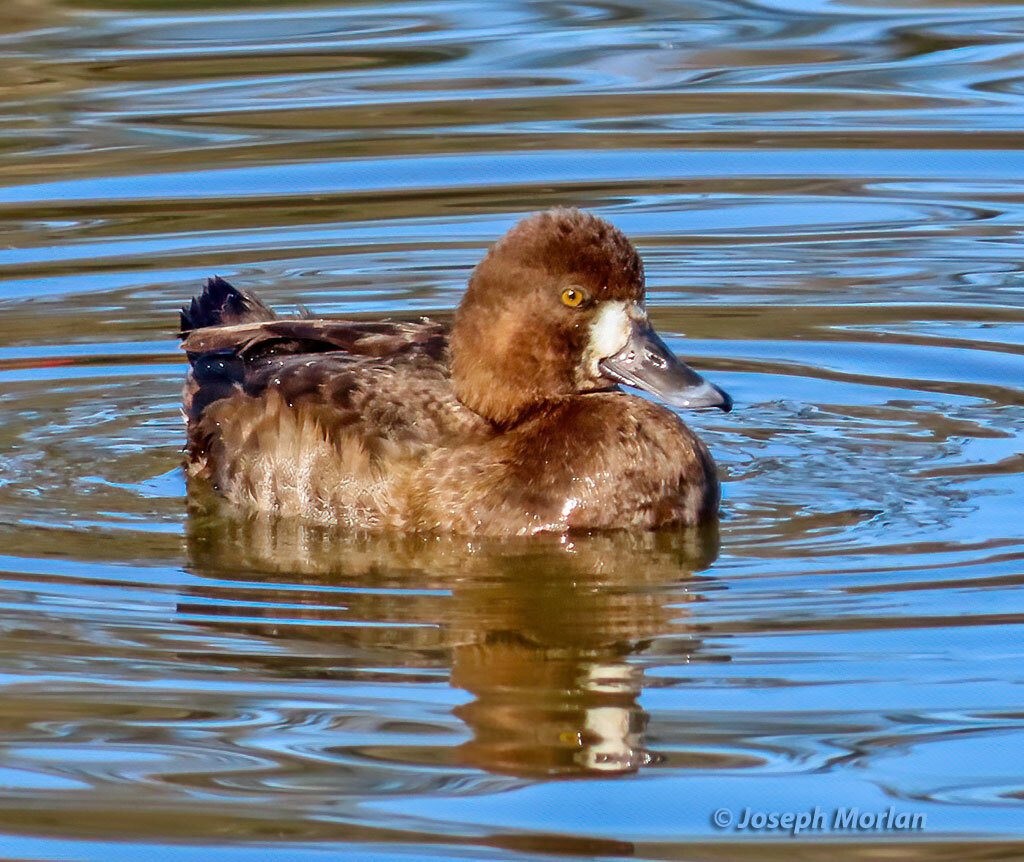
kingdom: Animalia
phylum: Chordata
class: Aves
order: Anseriformes
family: Anatidae
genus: Aythya
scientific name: Aythya affinis
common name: Lesser scaup
